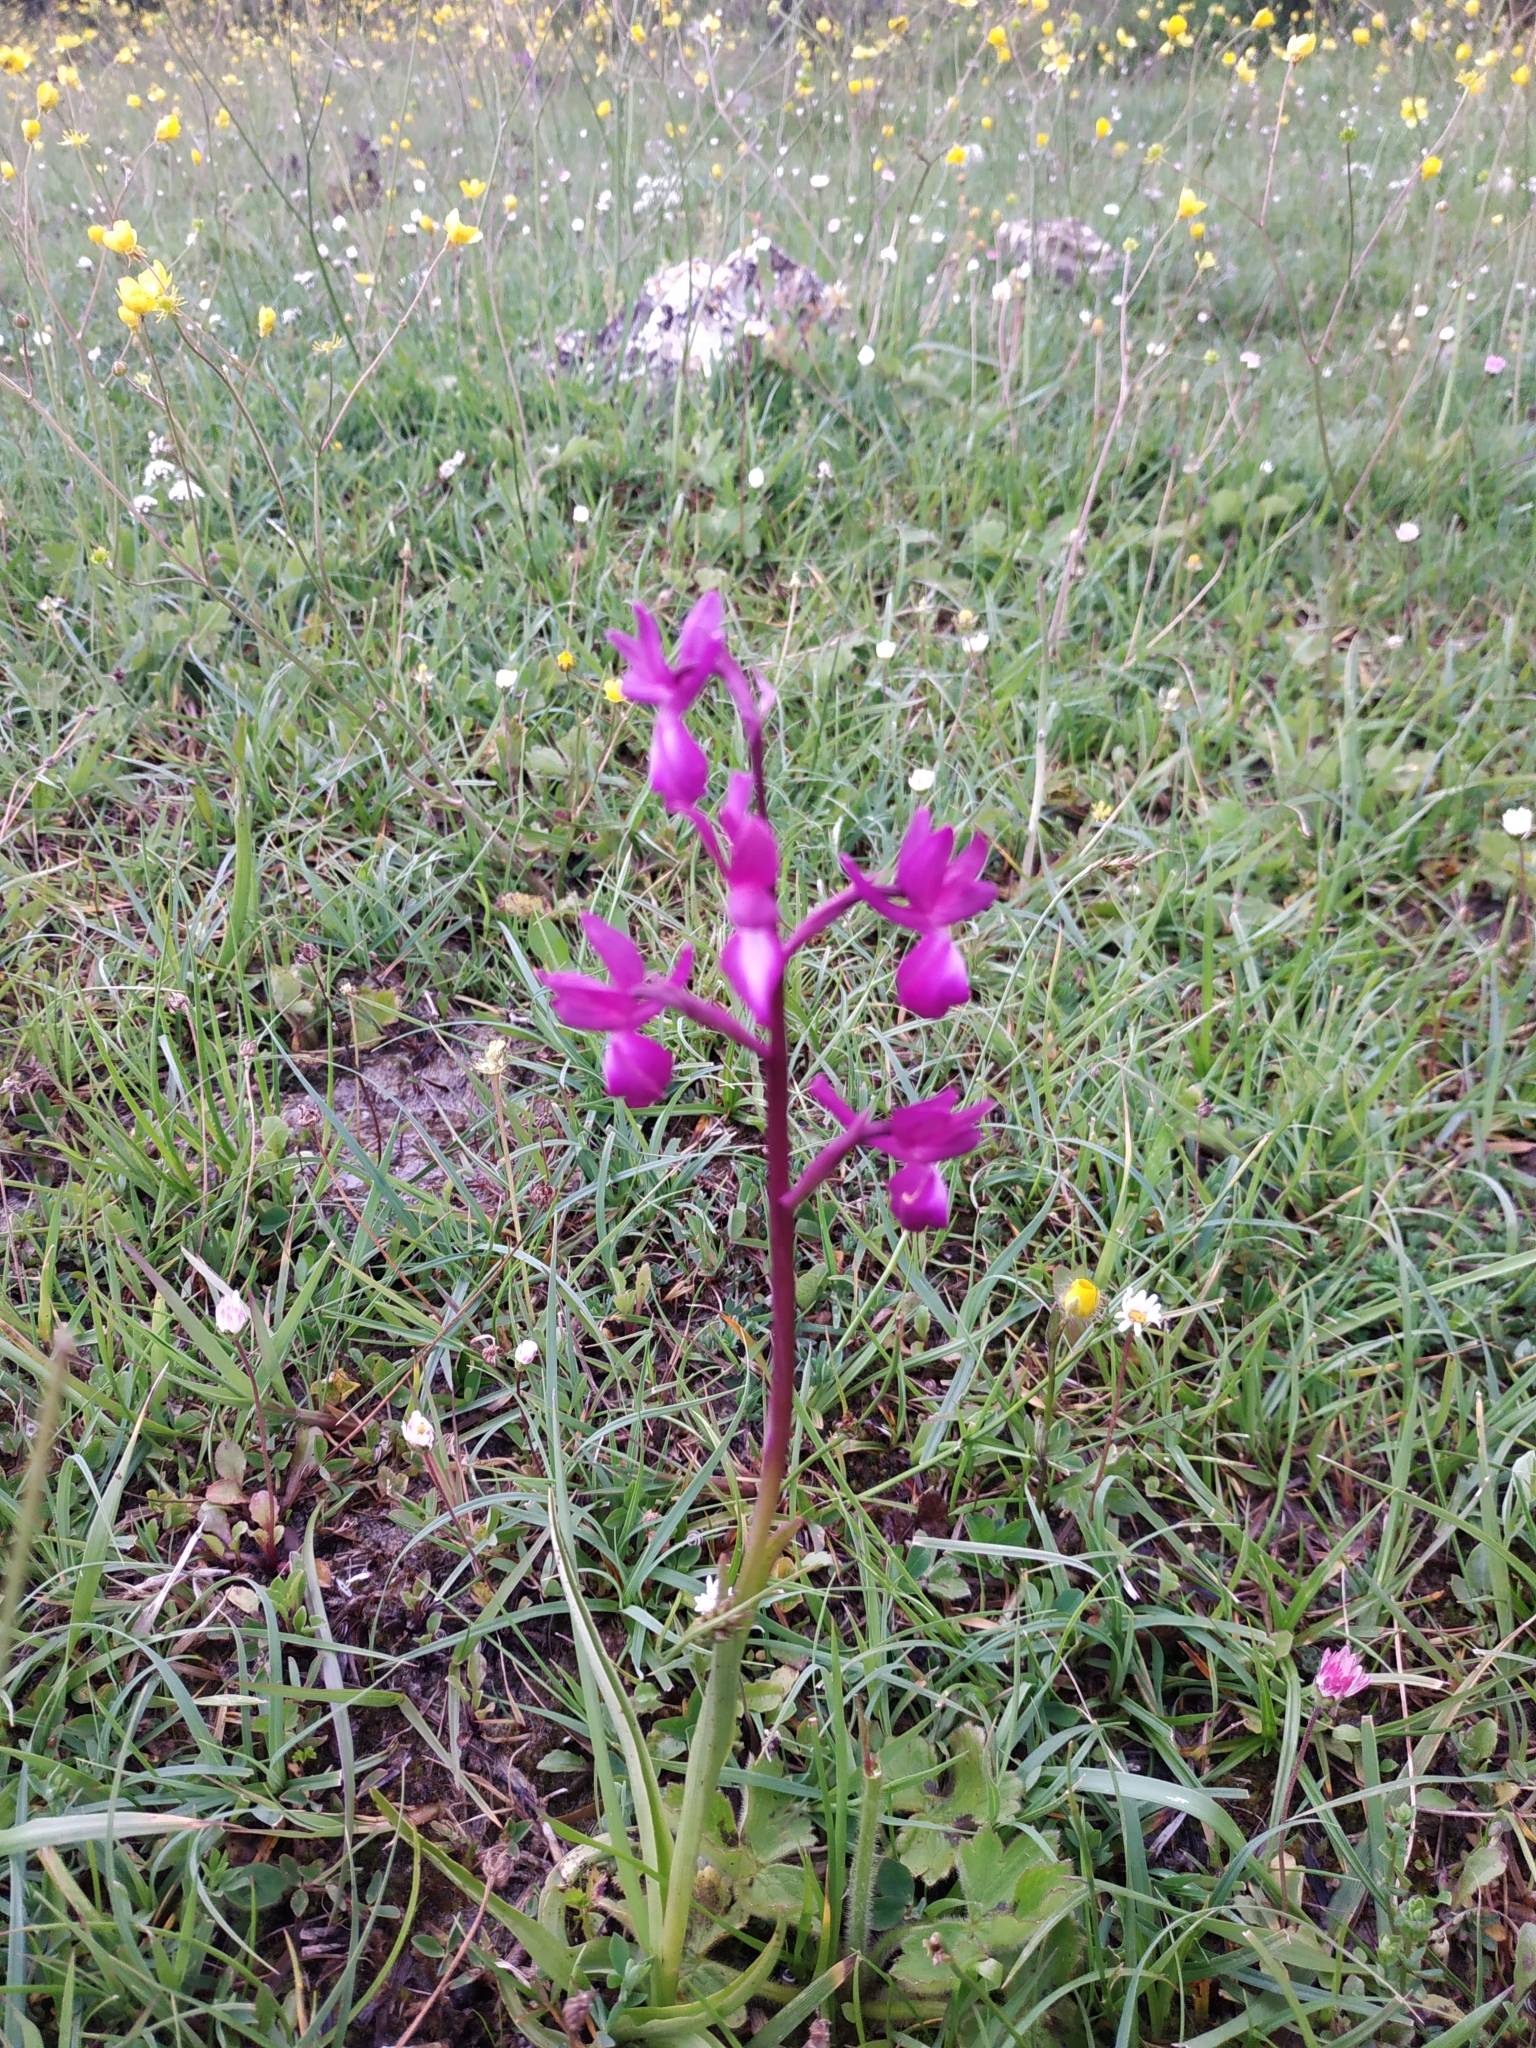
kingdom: Plantae
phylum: Tracheophyta
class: Liliopsida
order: Asparagales
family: Orchidaceae
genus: Anacamptis
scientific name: Anacamptis laxiflora
